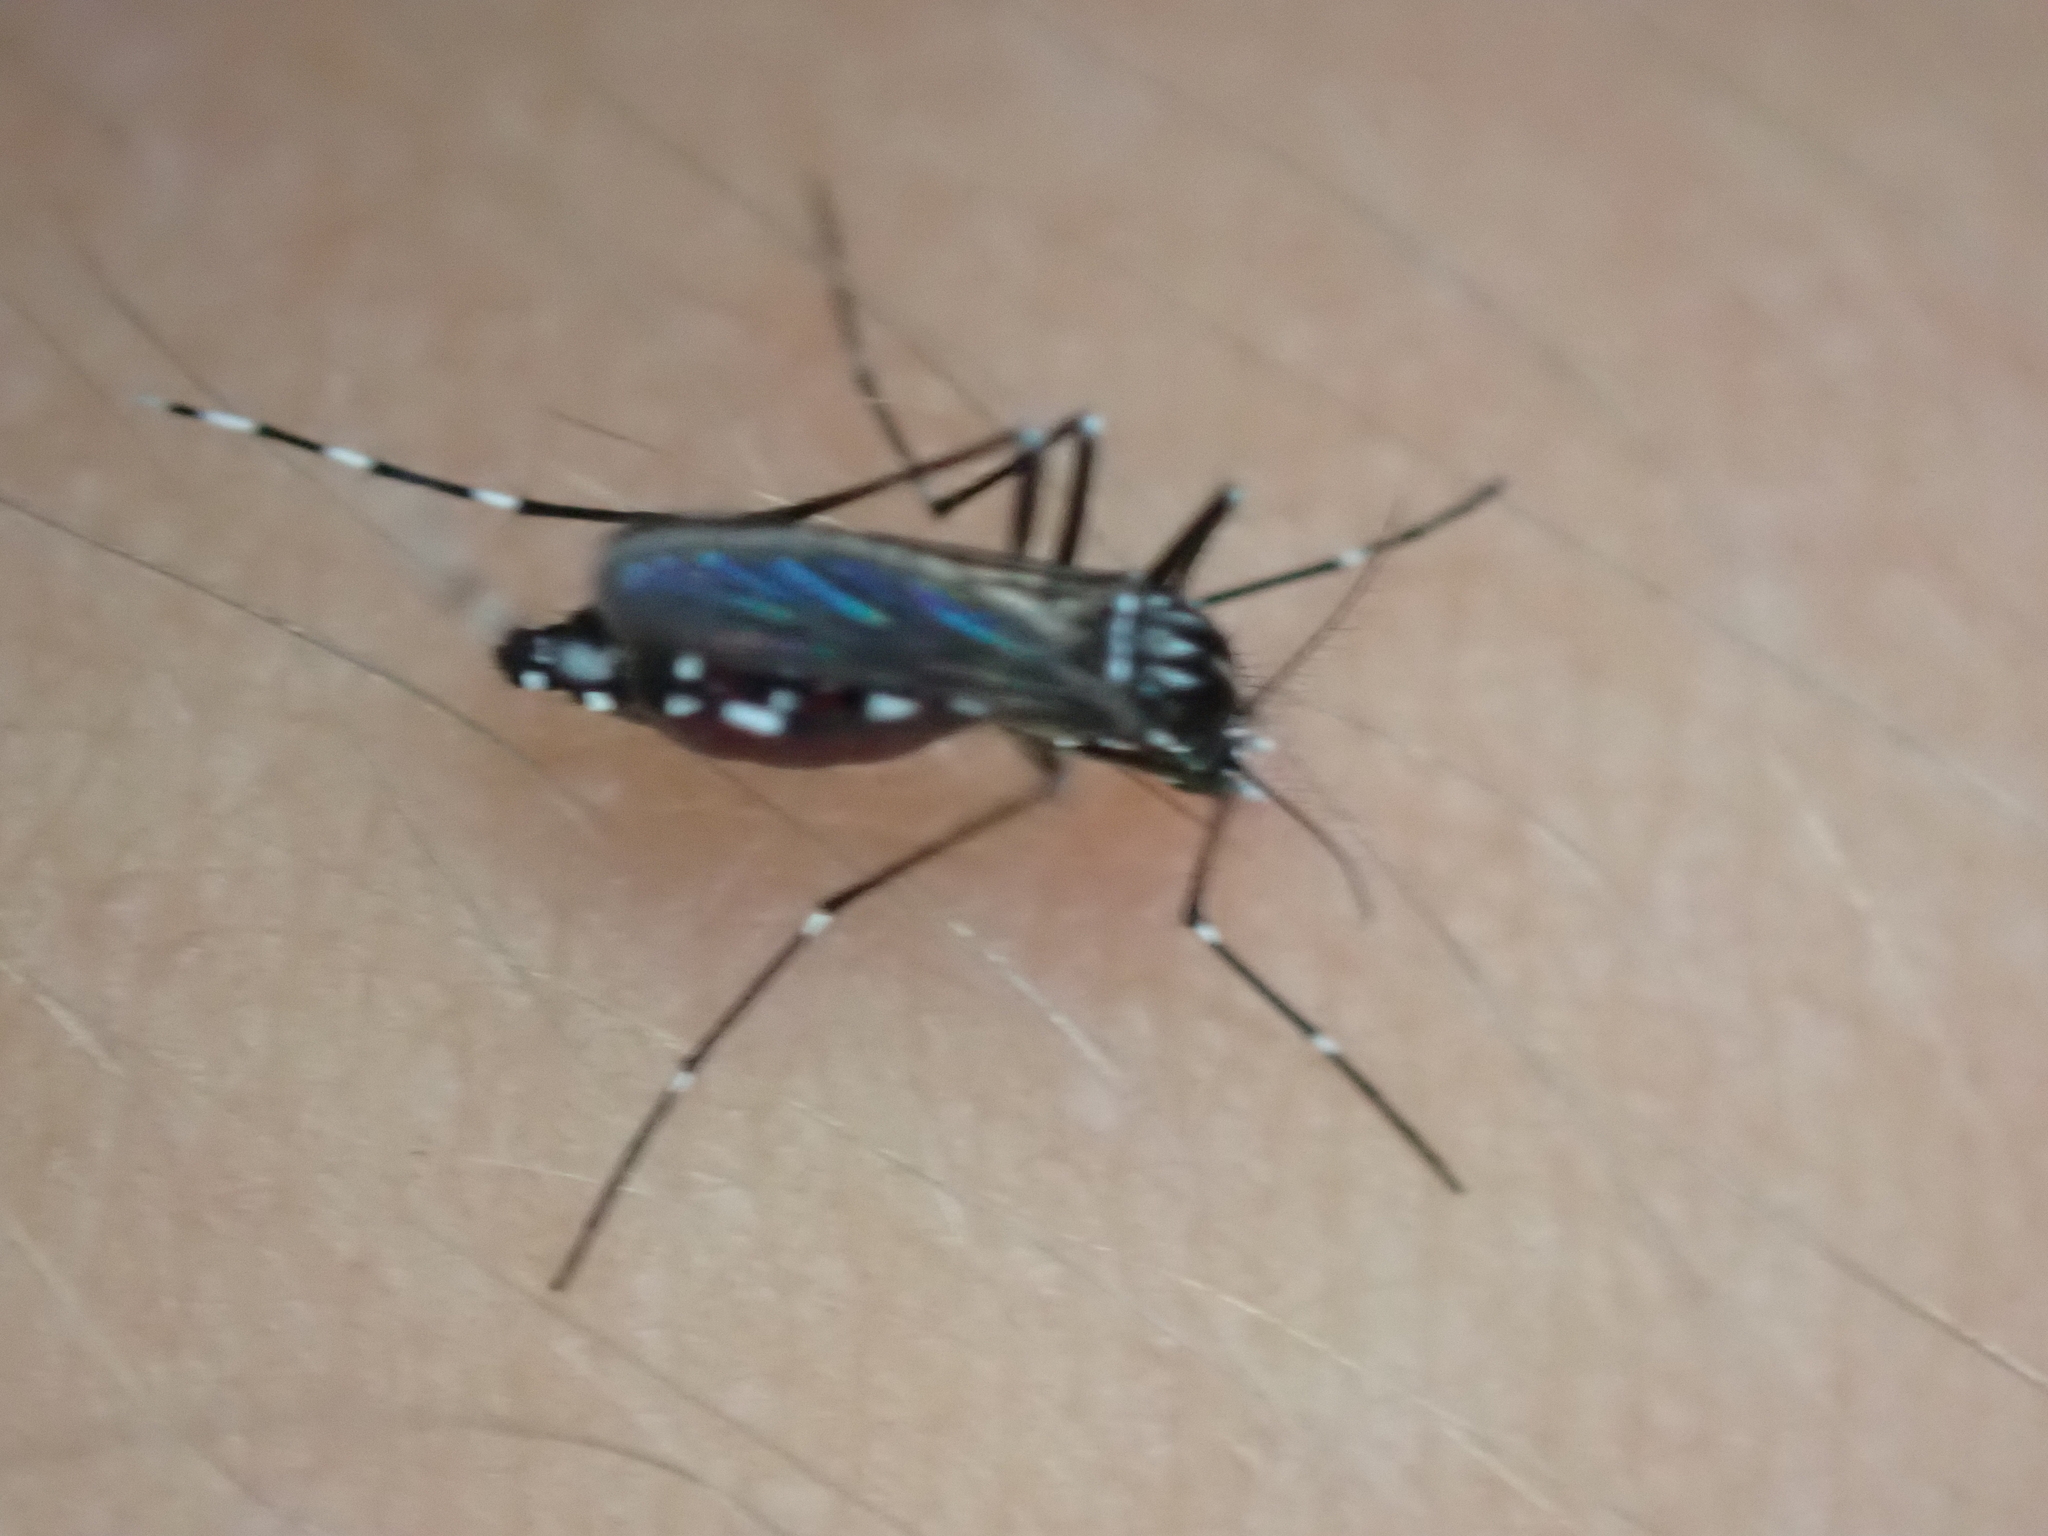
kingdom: Animalia
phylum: Arthropoda
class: Insecta
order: Diptera
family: Culicidae
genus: Aedes
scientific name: Aedes albopictus
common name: Tiger mosquito
